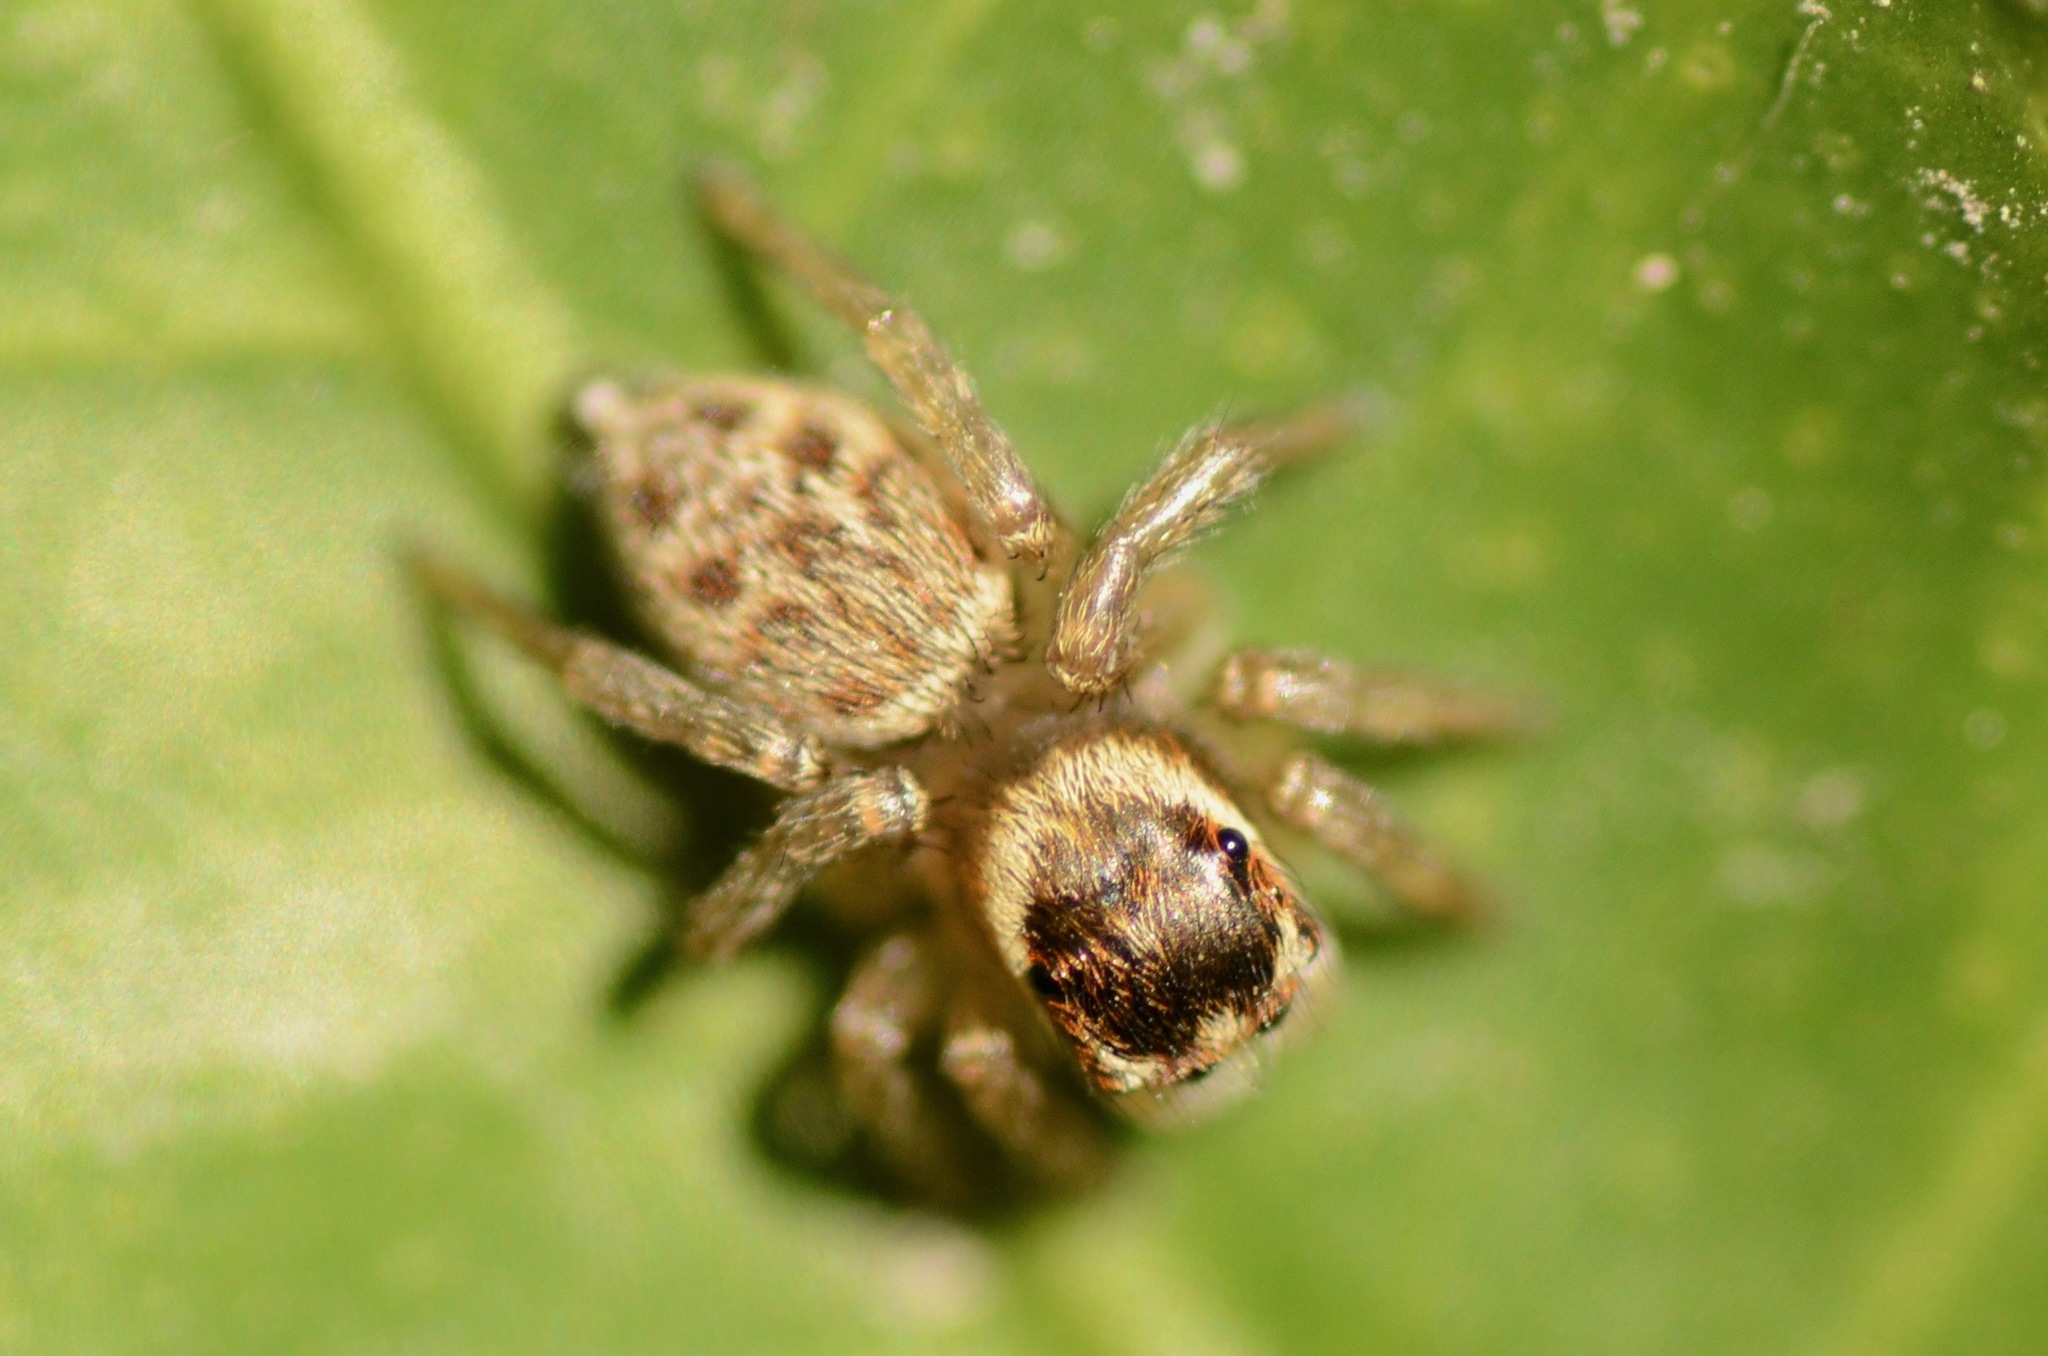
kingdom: Animalia
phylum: Arthropoda
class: Arachnida
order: Araneae
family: Salticidae
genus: Maratus
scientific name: Maratus griseus
